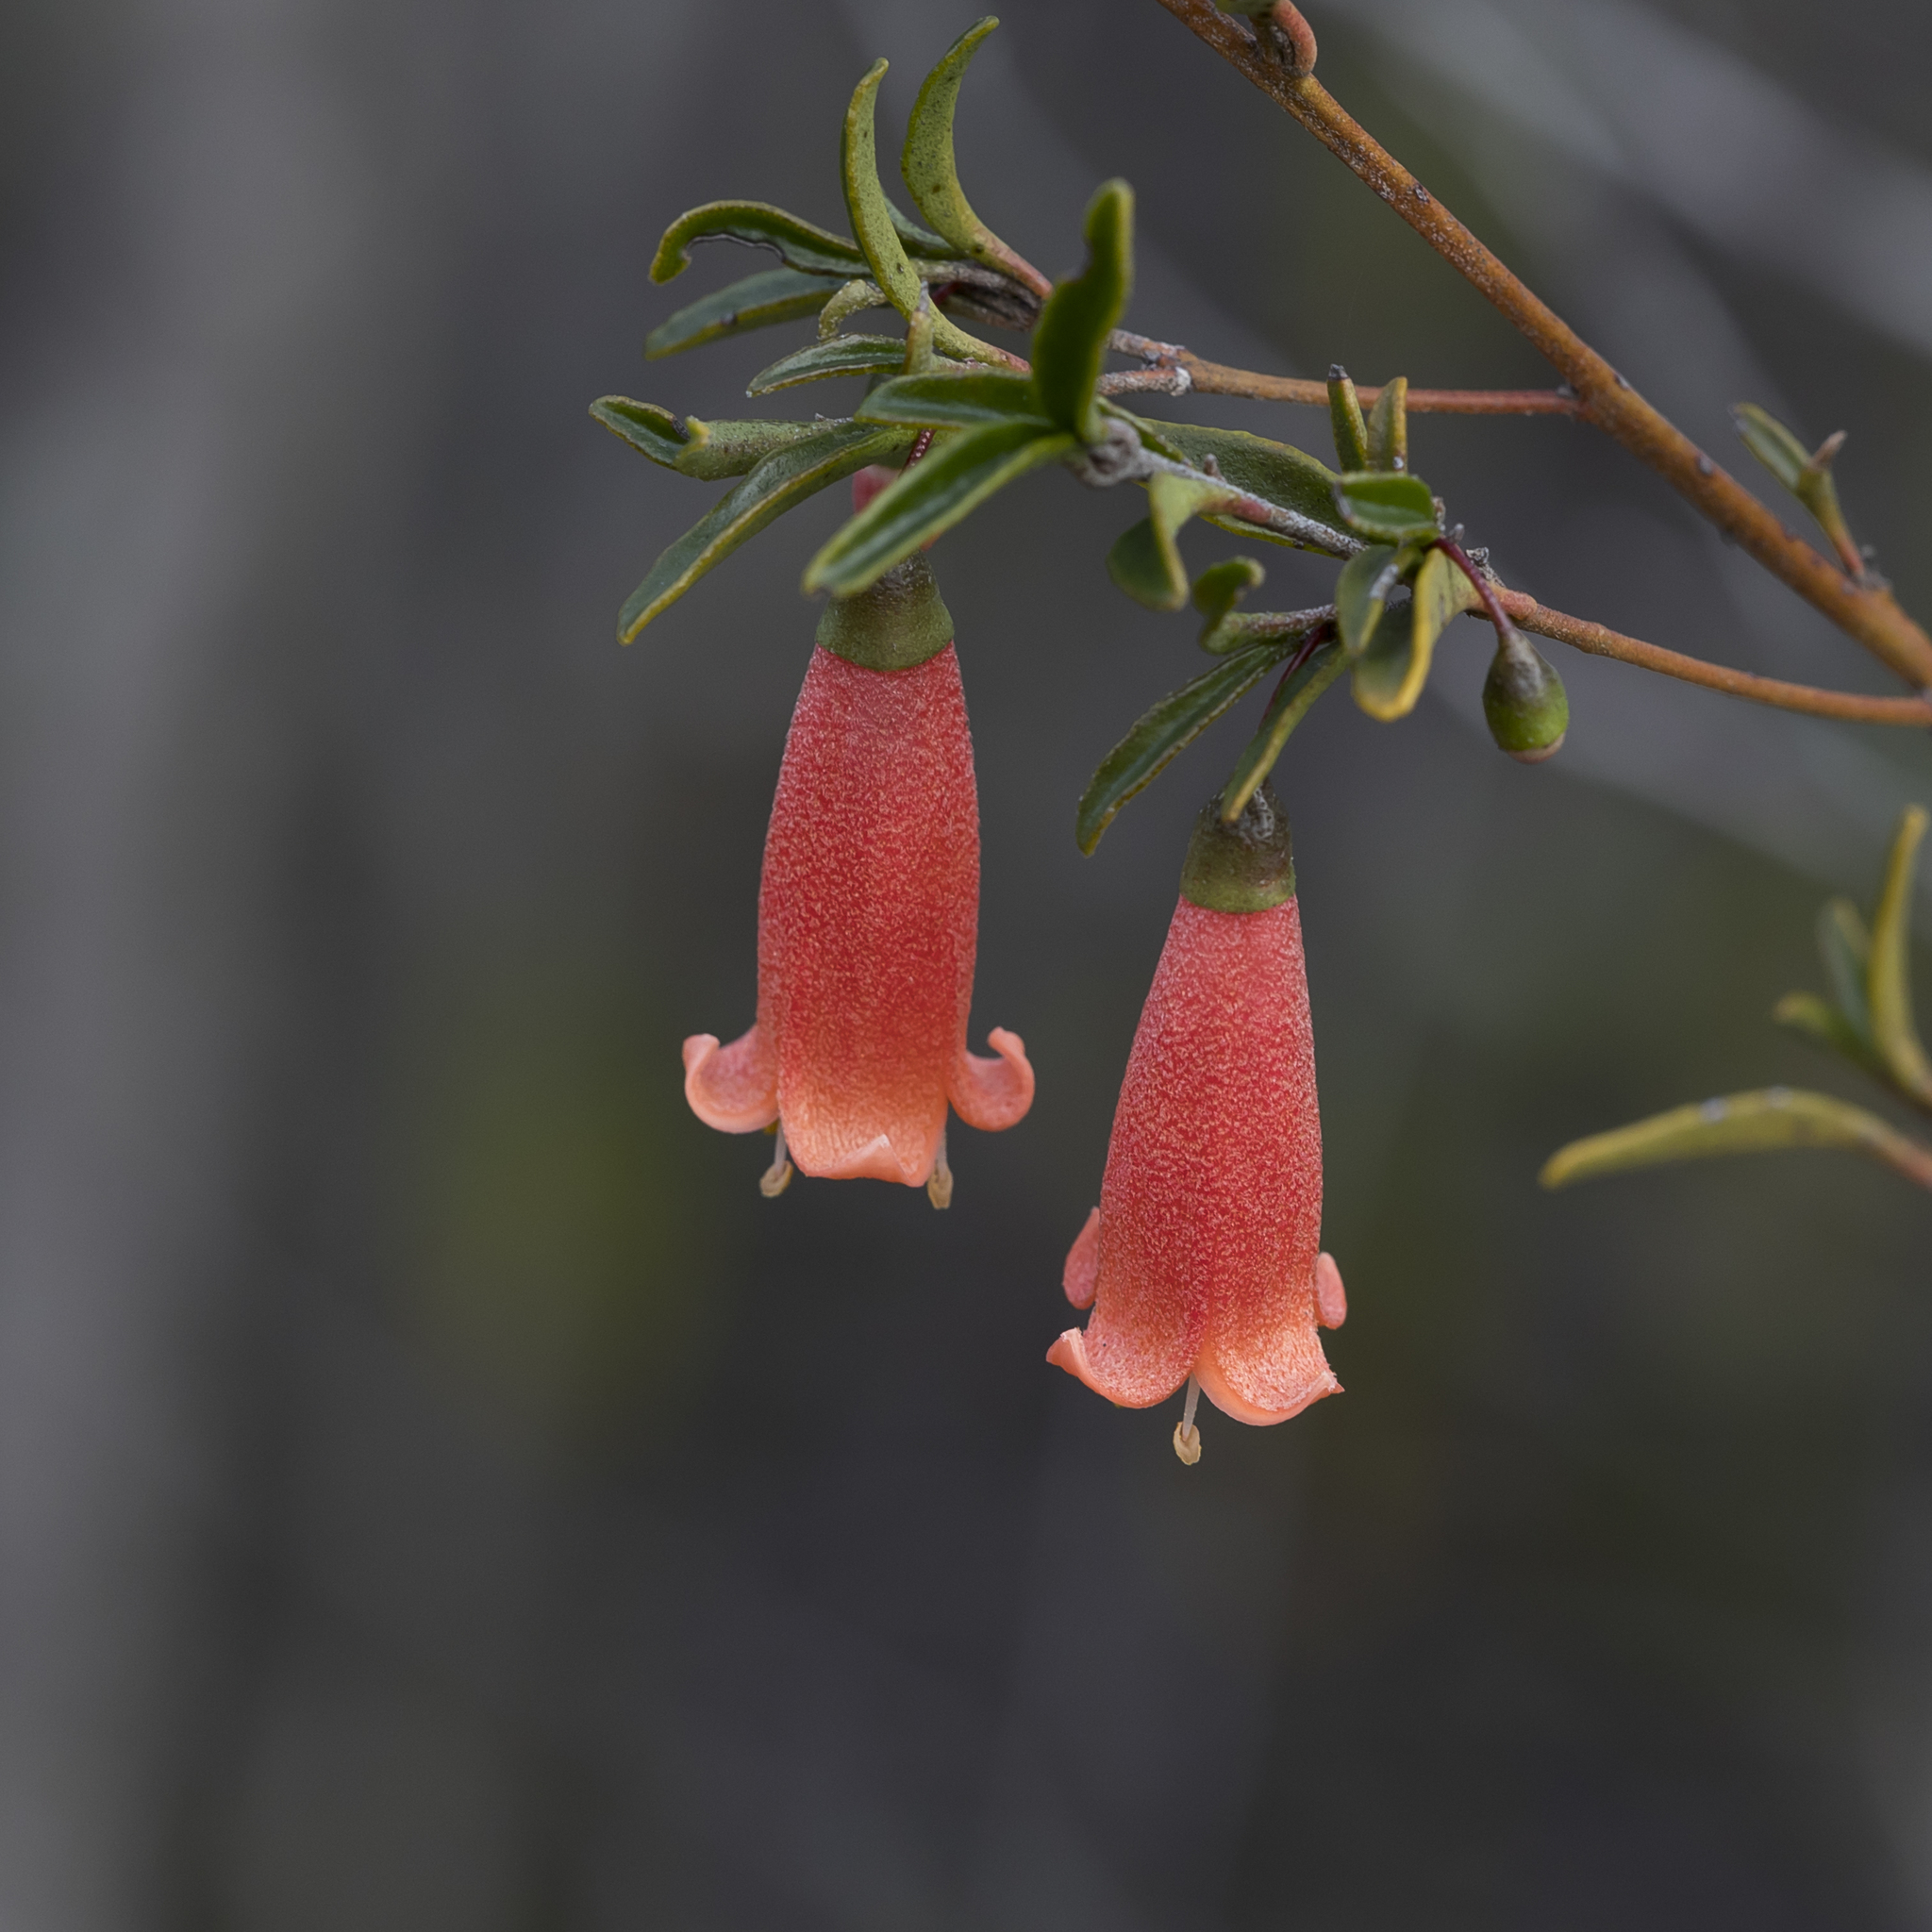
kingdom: Plantae
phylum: Tracheophyta
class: Magnoliopsida
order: Sapindales
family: Rutaceae
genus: Correa
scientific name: Correa pulchella
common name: Salmon correa
